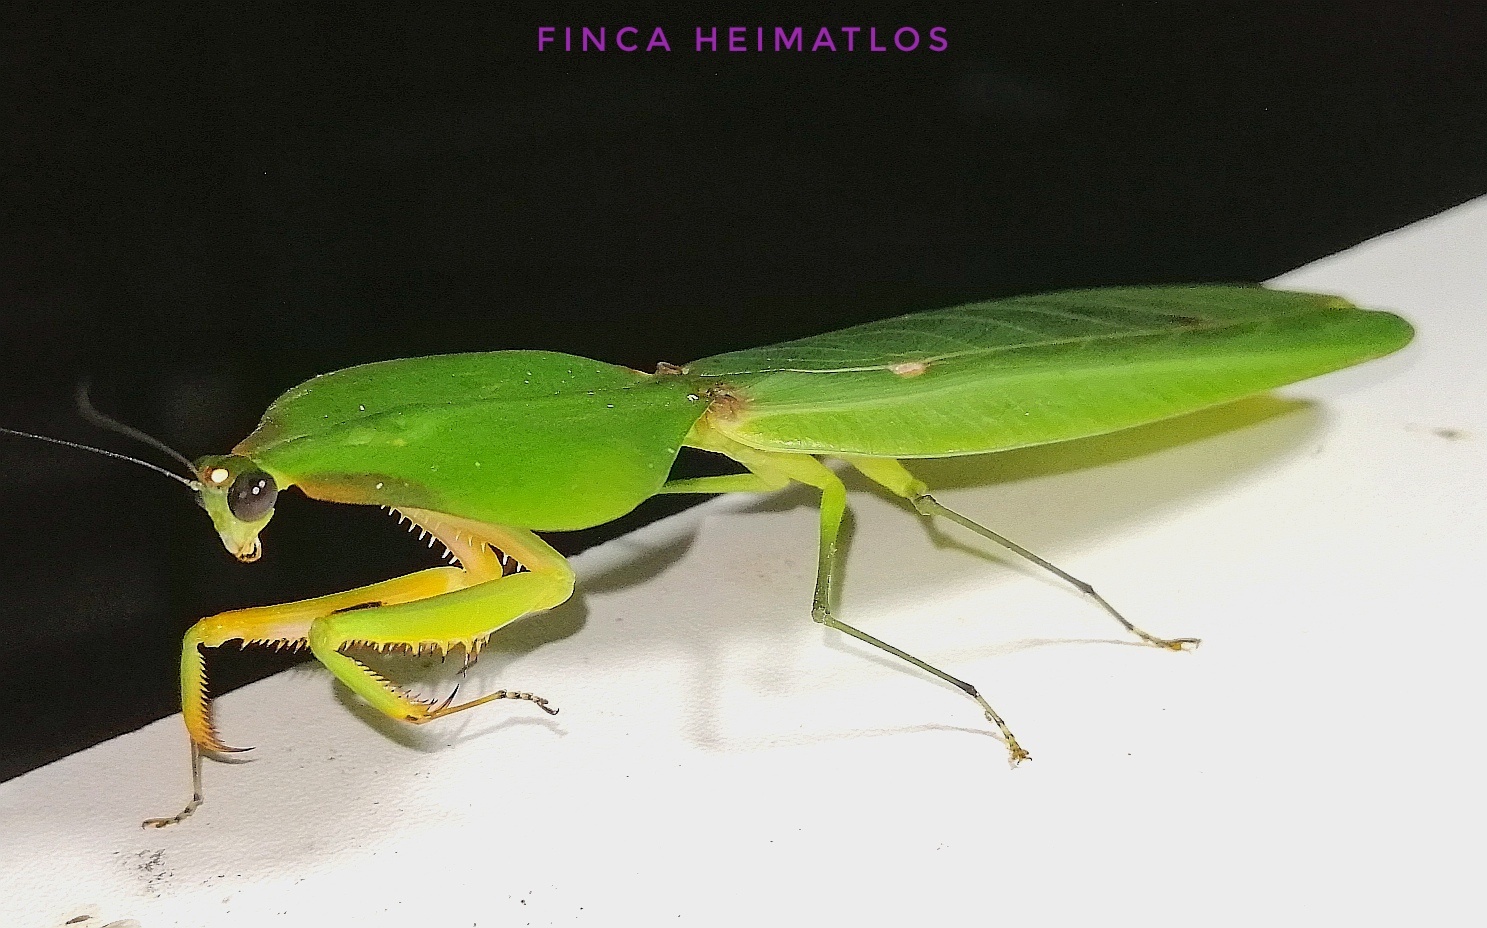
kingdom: Animalia
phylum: Arthropoda
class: Insecta
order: Mantodea
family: Mantidae
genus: Choeradodis
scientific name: Choeradodis stalii
